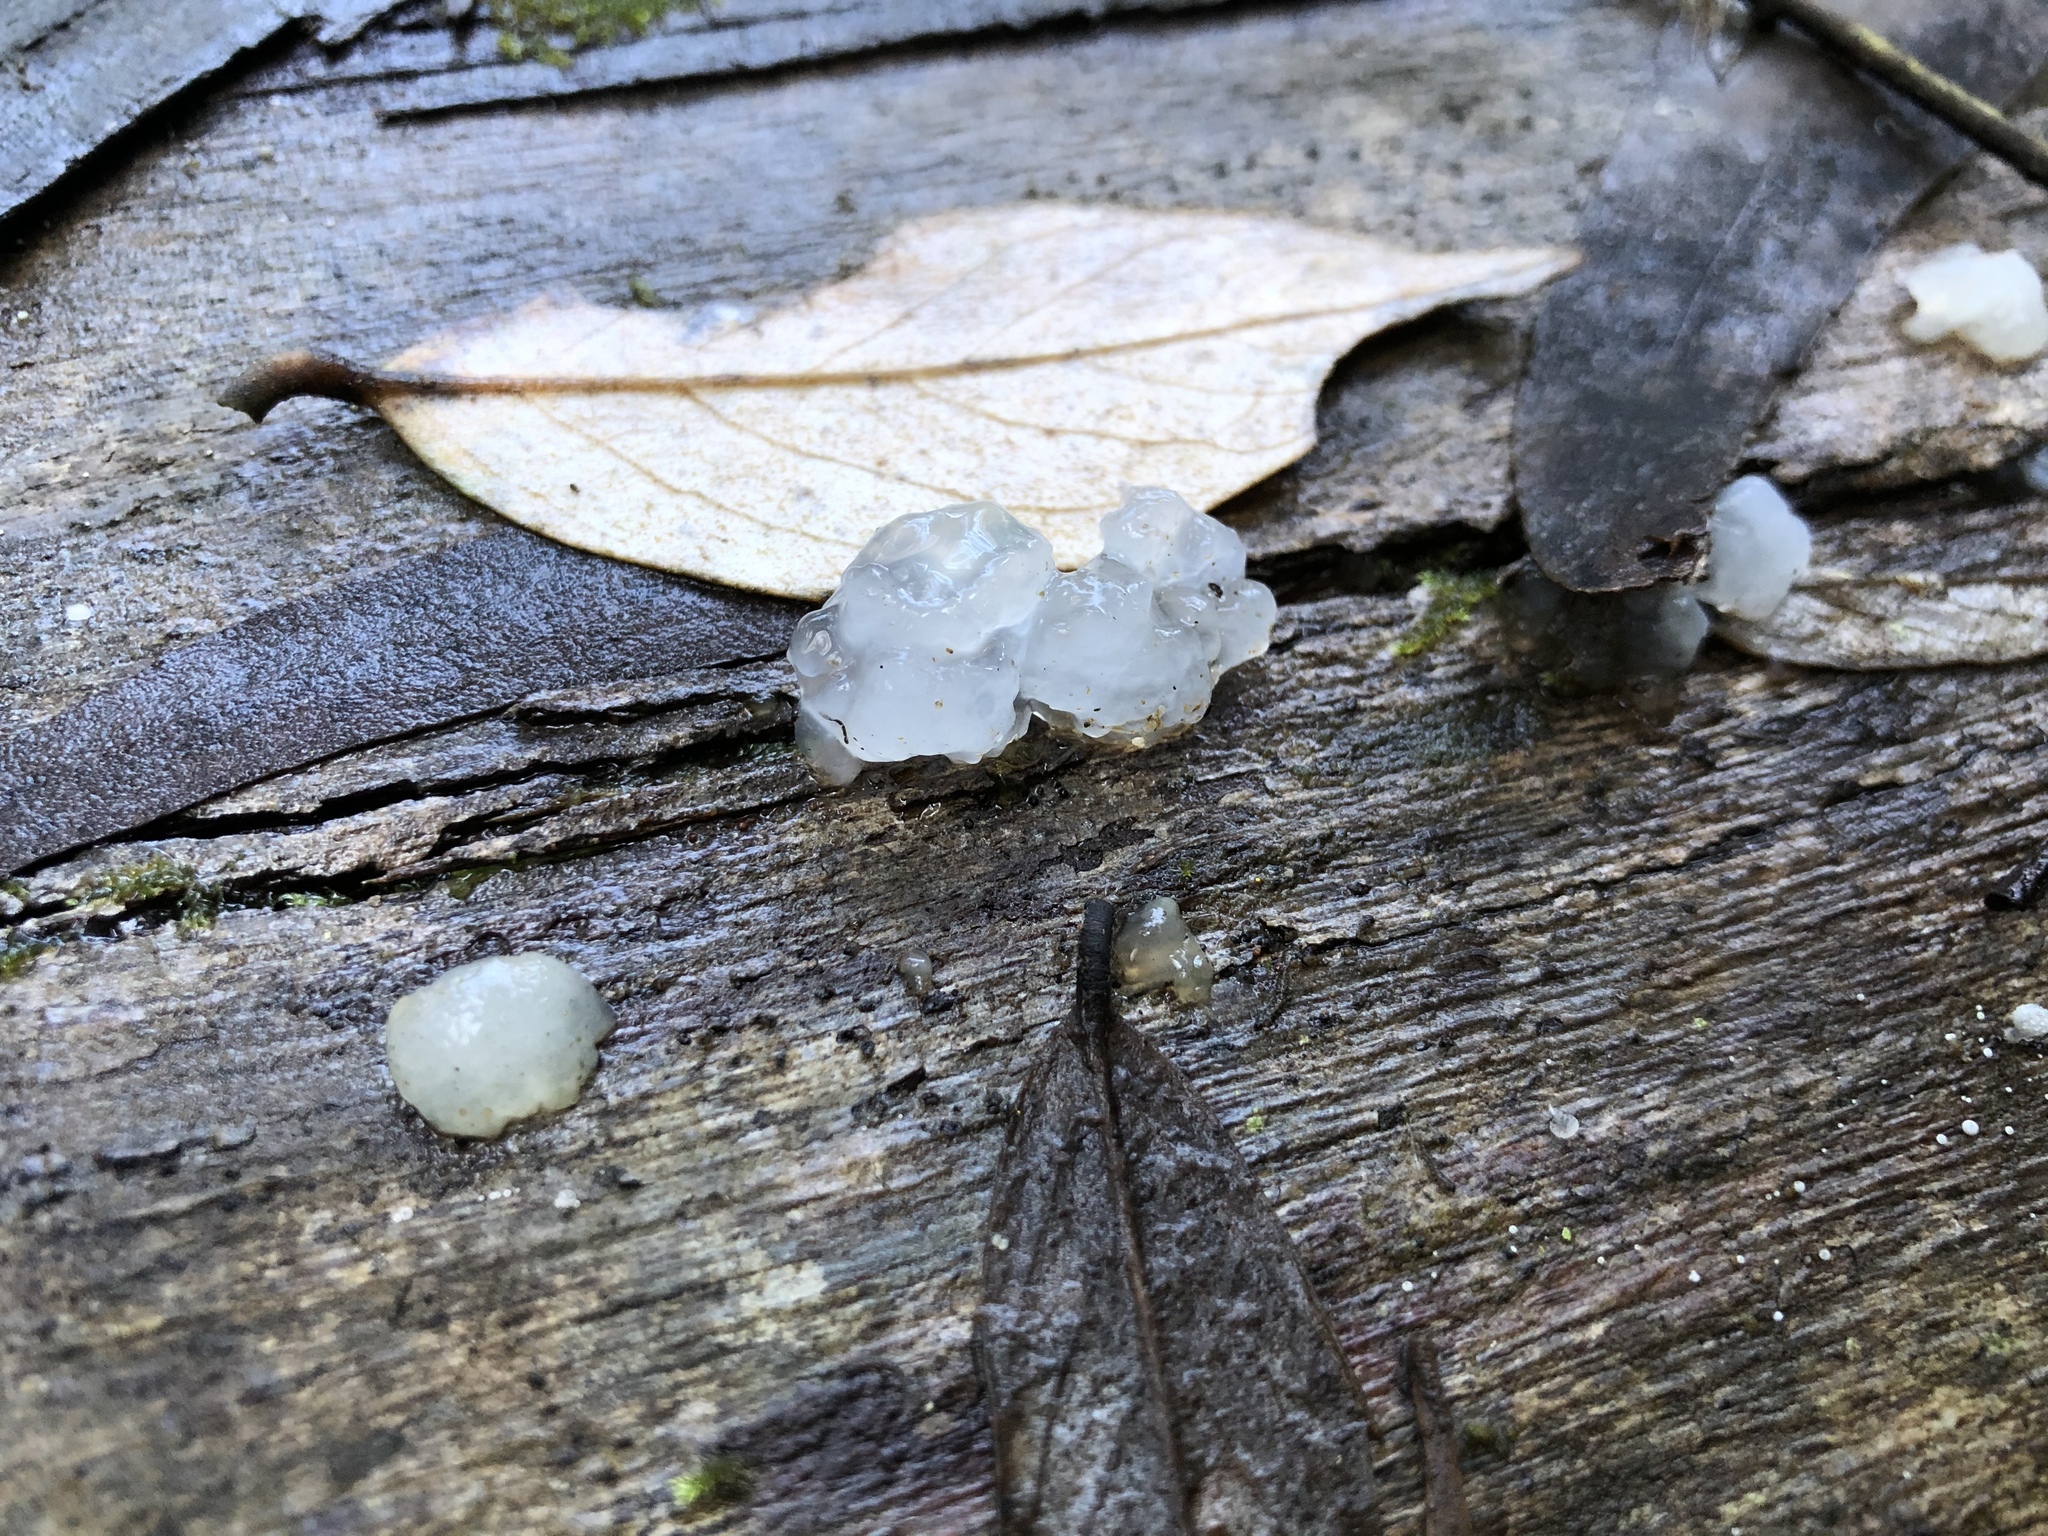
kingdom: Fungi
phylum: Basidiomycota
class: Tremellomycetes
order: Tremellales
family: Tremellaceae
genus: Tremella
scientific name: Tremella fuciformis
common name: Snow fungus
